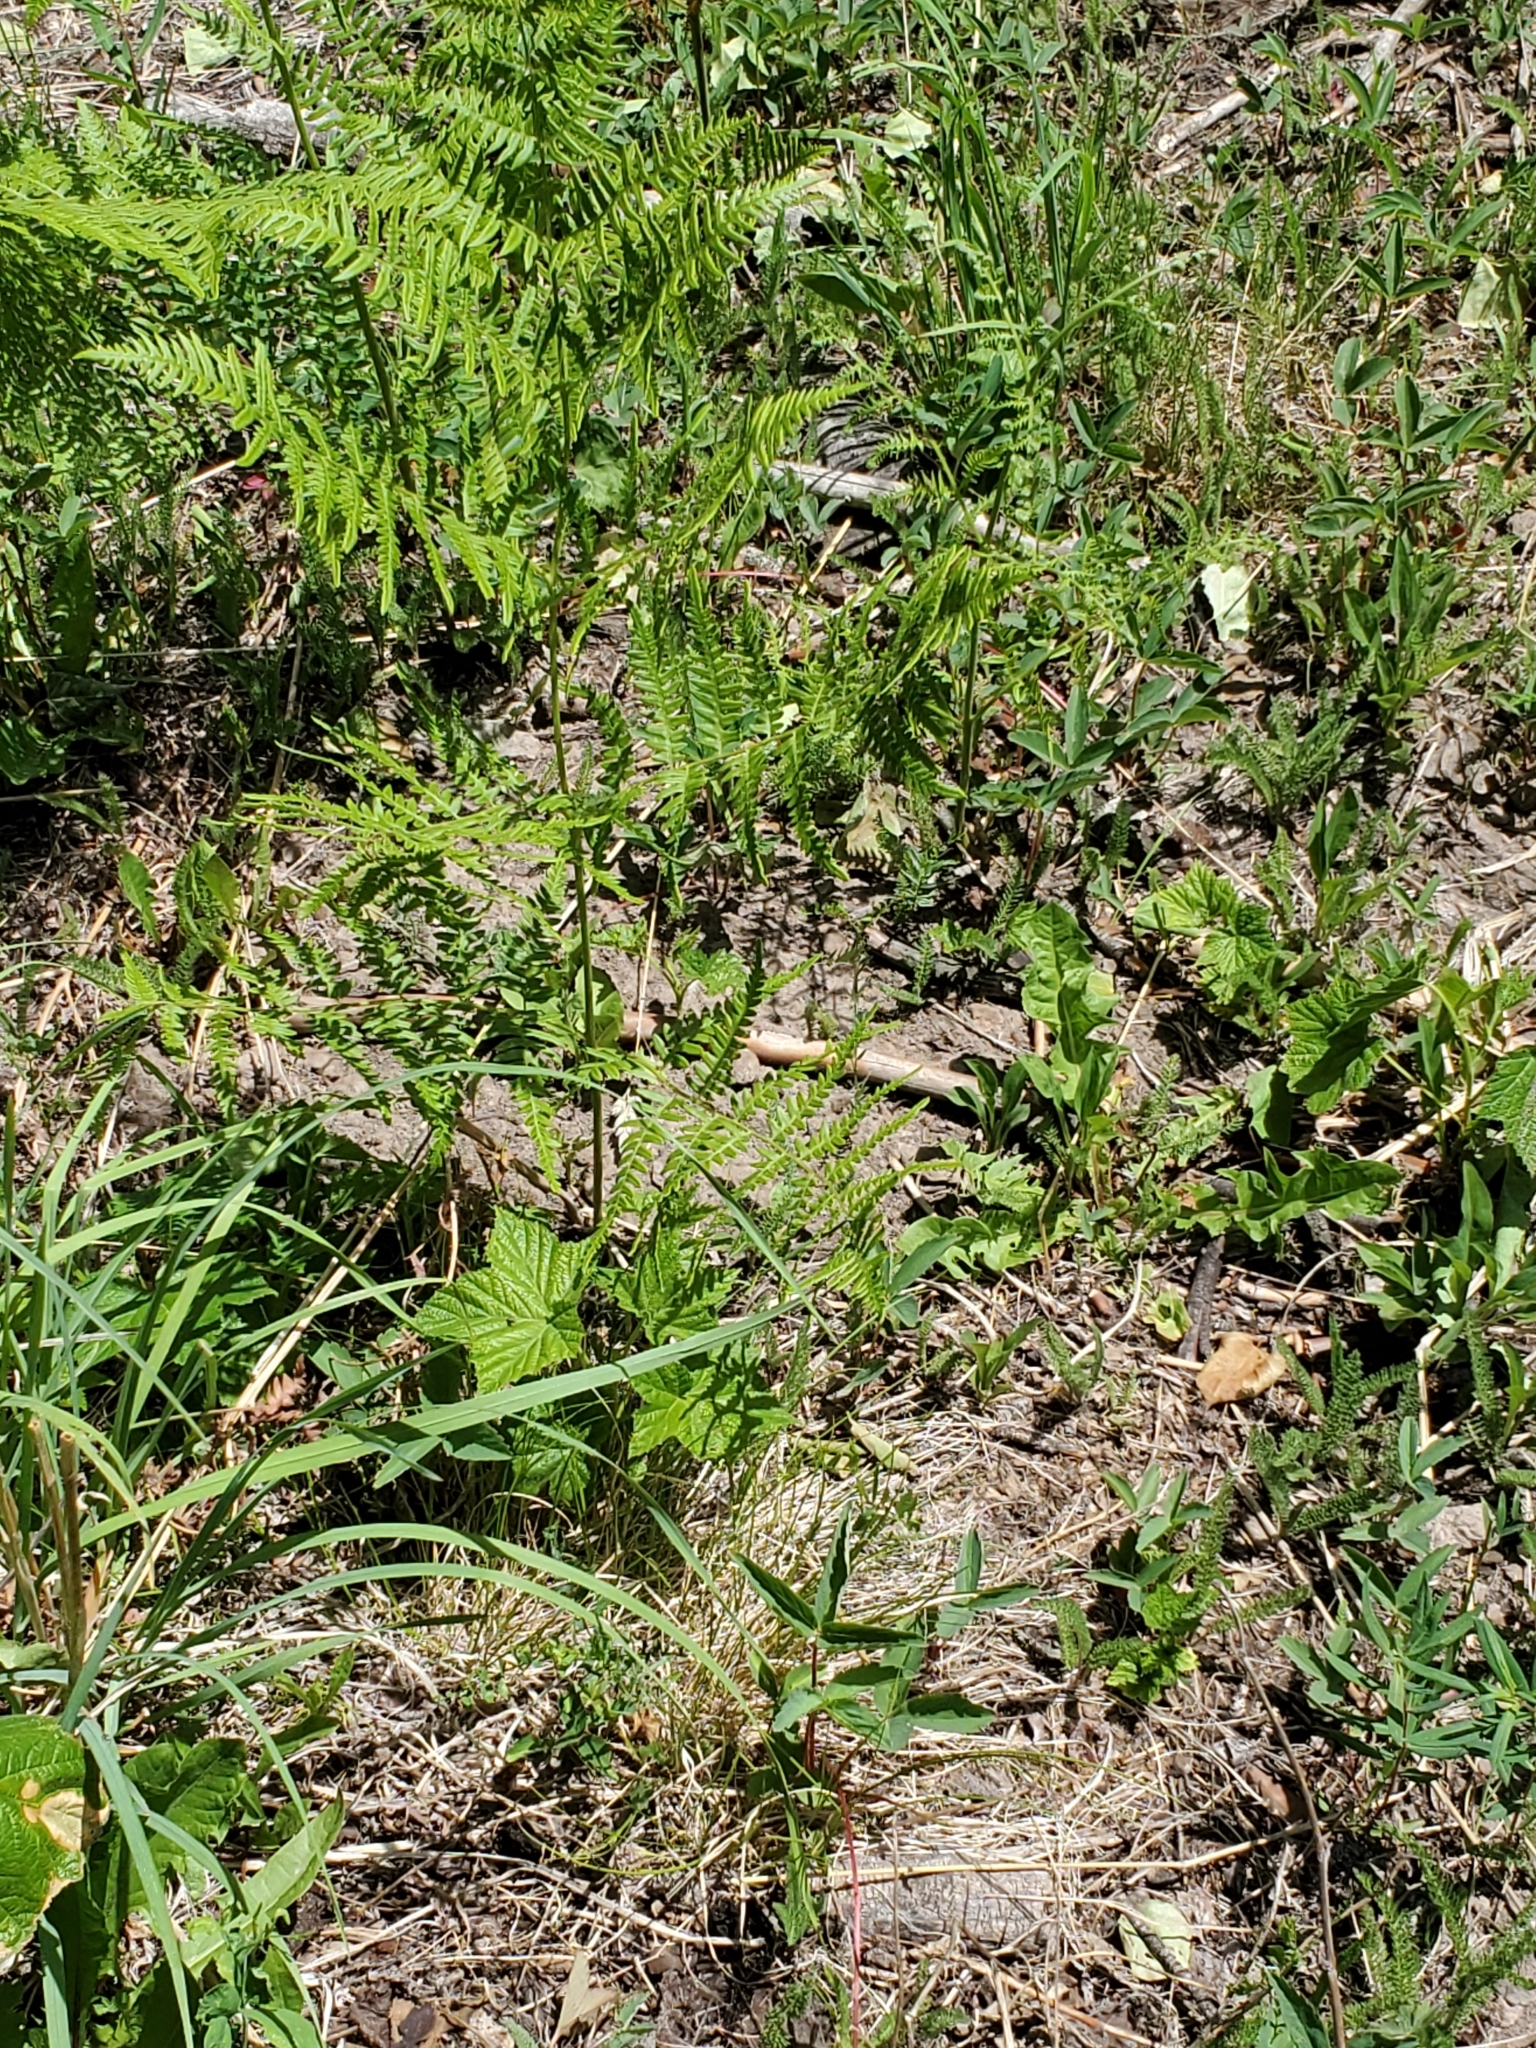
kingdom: Plantae
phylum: Tracheophyta
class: Polypodiopsida
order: Polypodiales
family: Dennstaedtiaceae
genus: Pteridium
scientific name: Pteridium aquilinum
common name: Bracken
